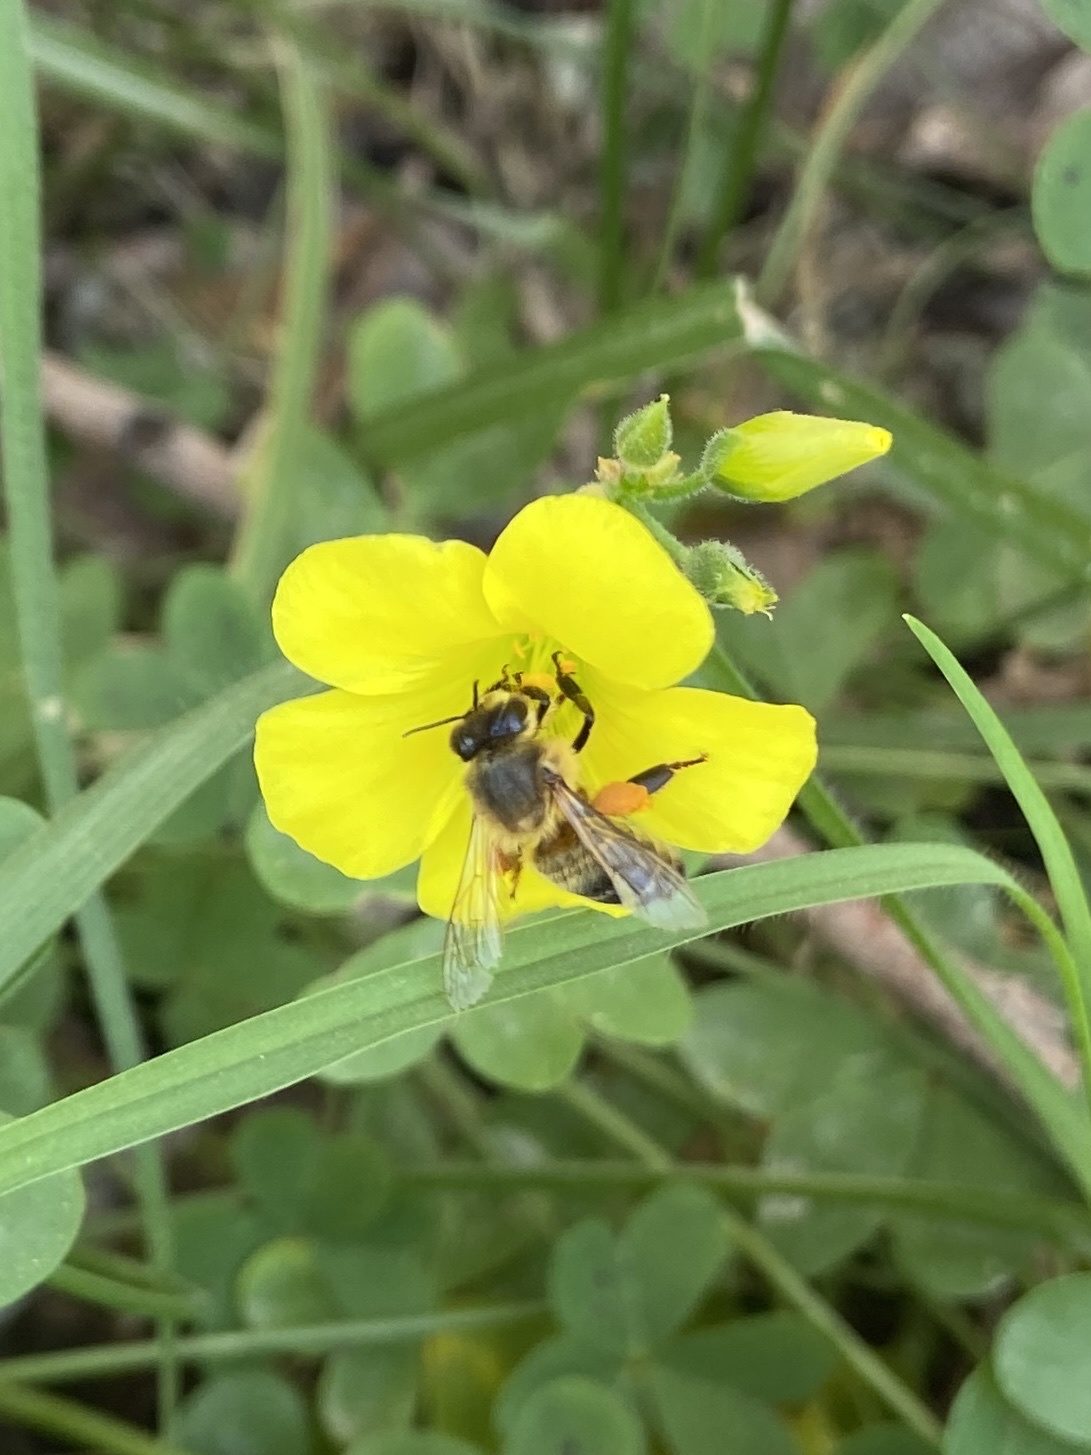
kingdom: Animalia
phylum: Arthropoda
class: Insecta
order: Hymenoptera
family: Apidae
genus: Apis
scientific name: Apis mellifera
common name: Honey bee
